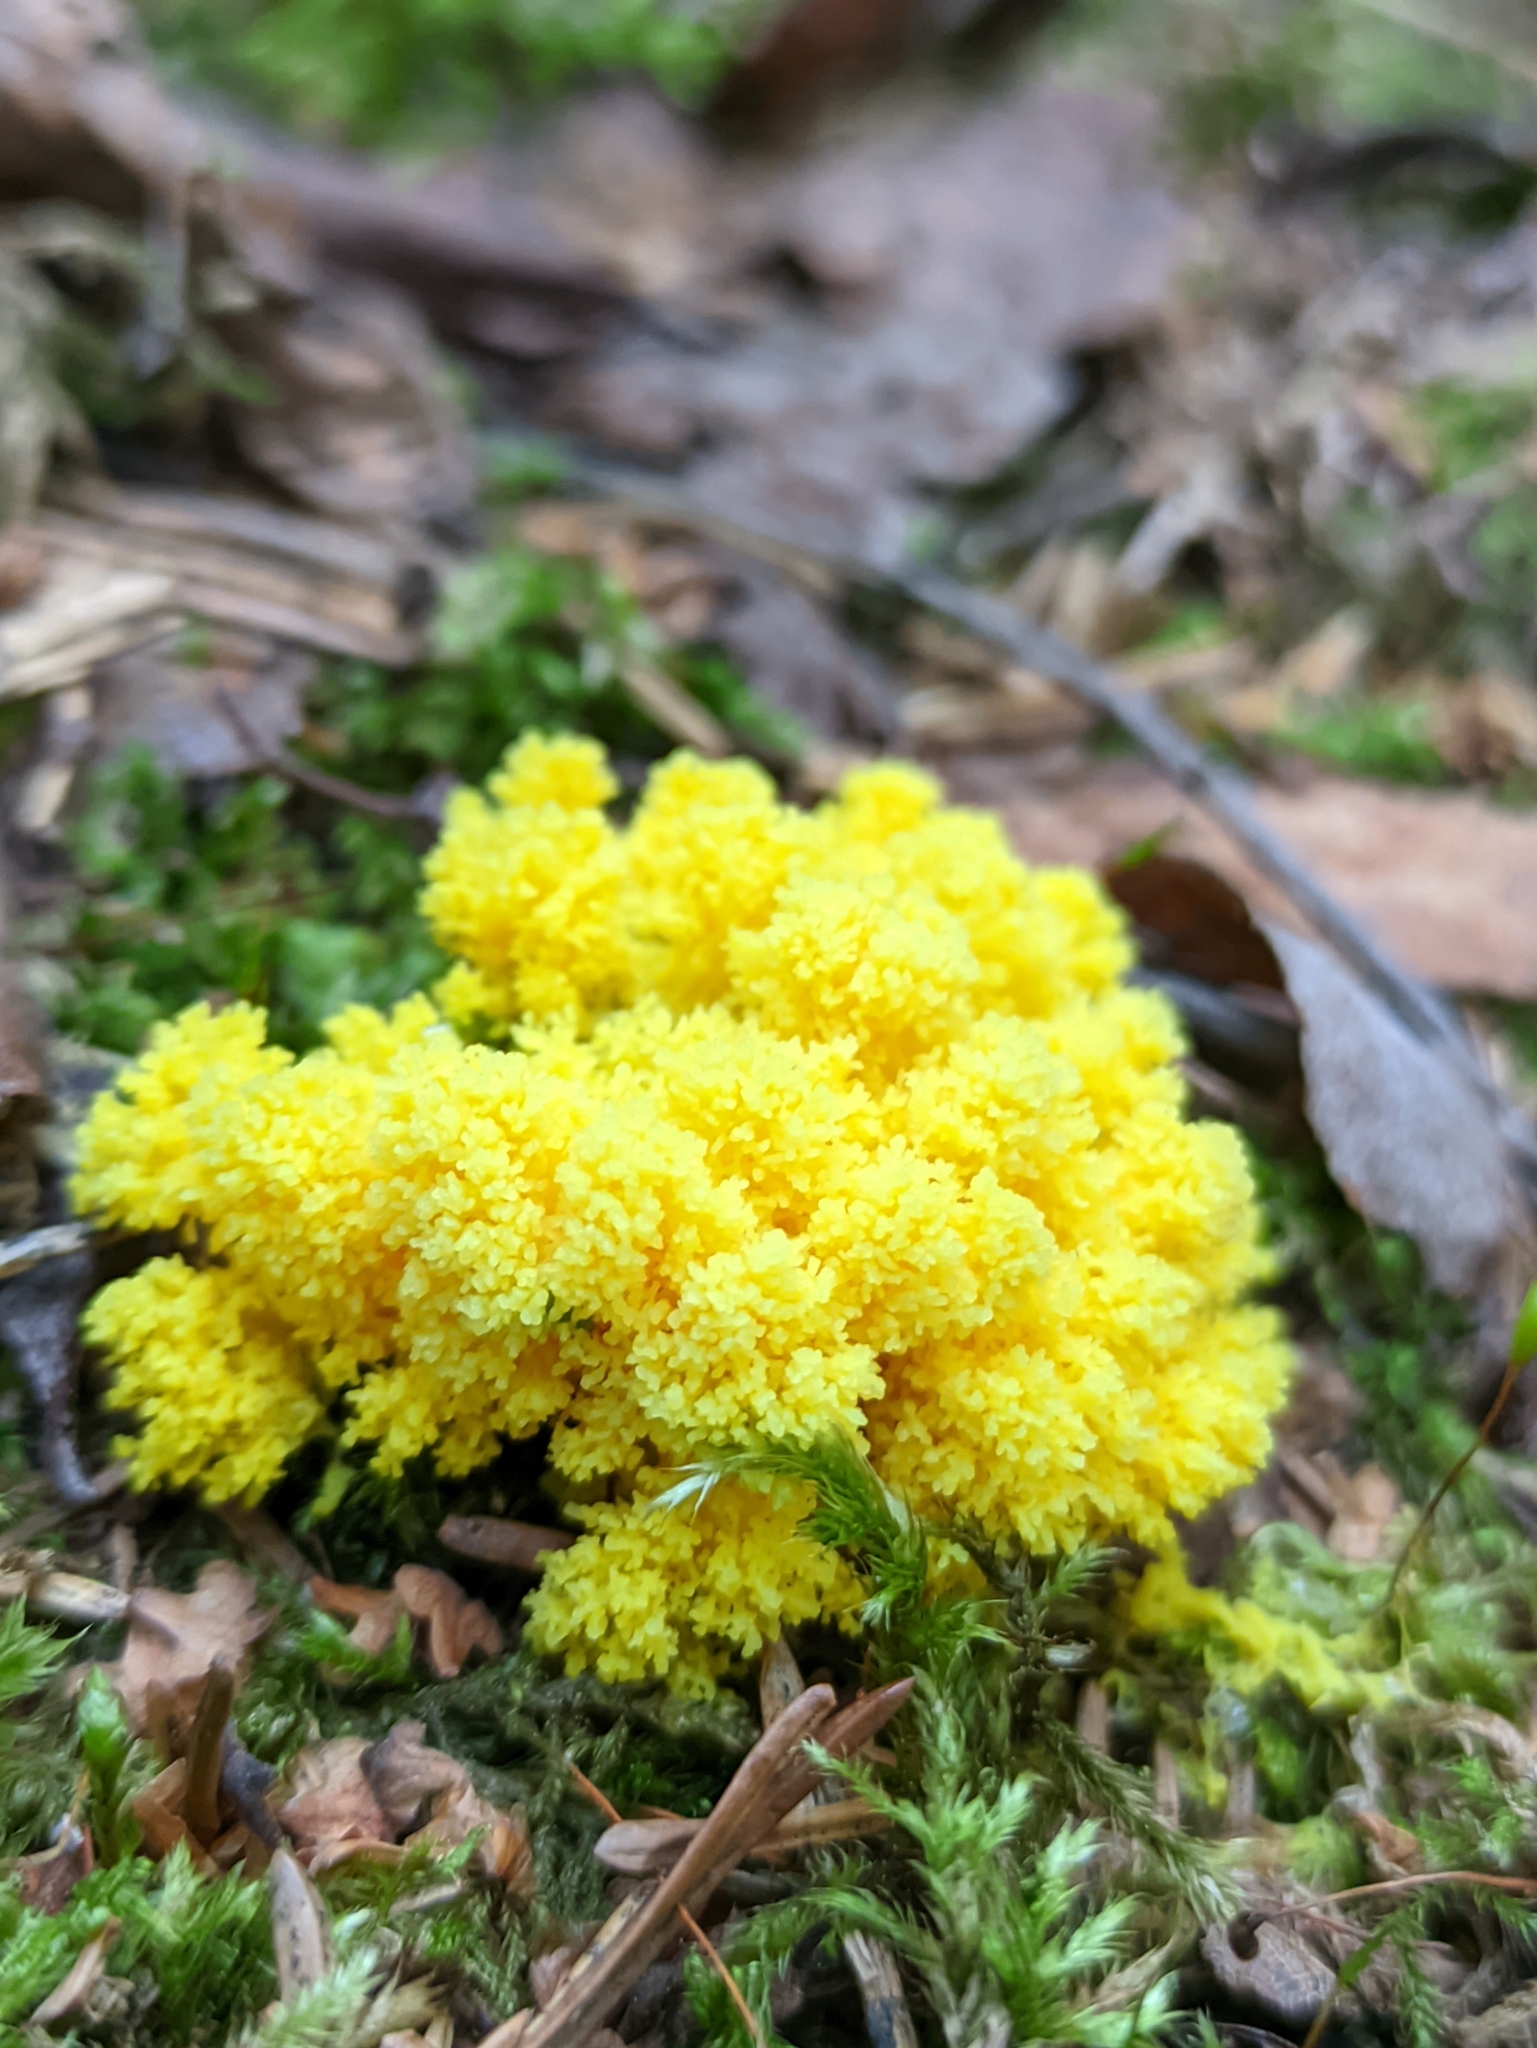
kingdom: Protozoa
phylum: Mycetozoa
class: Myxomycetes
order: Physarales
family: Physaraceae
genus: Fuligo
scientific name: Fuligo septica
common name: Dog vomit slime mold
